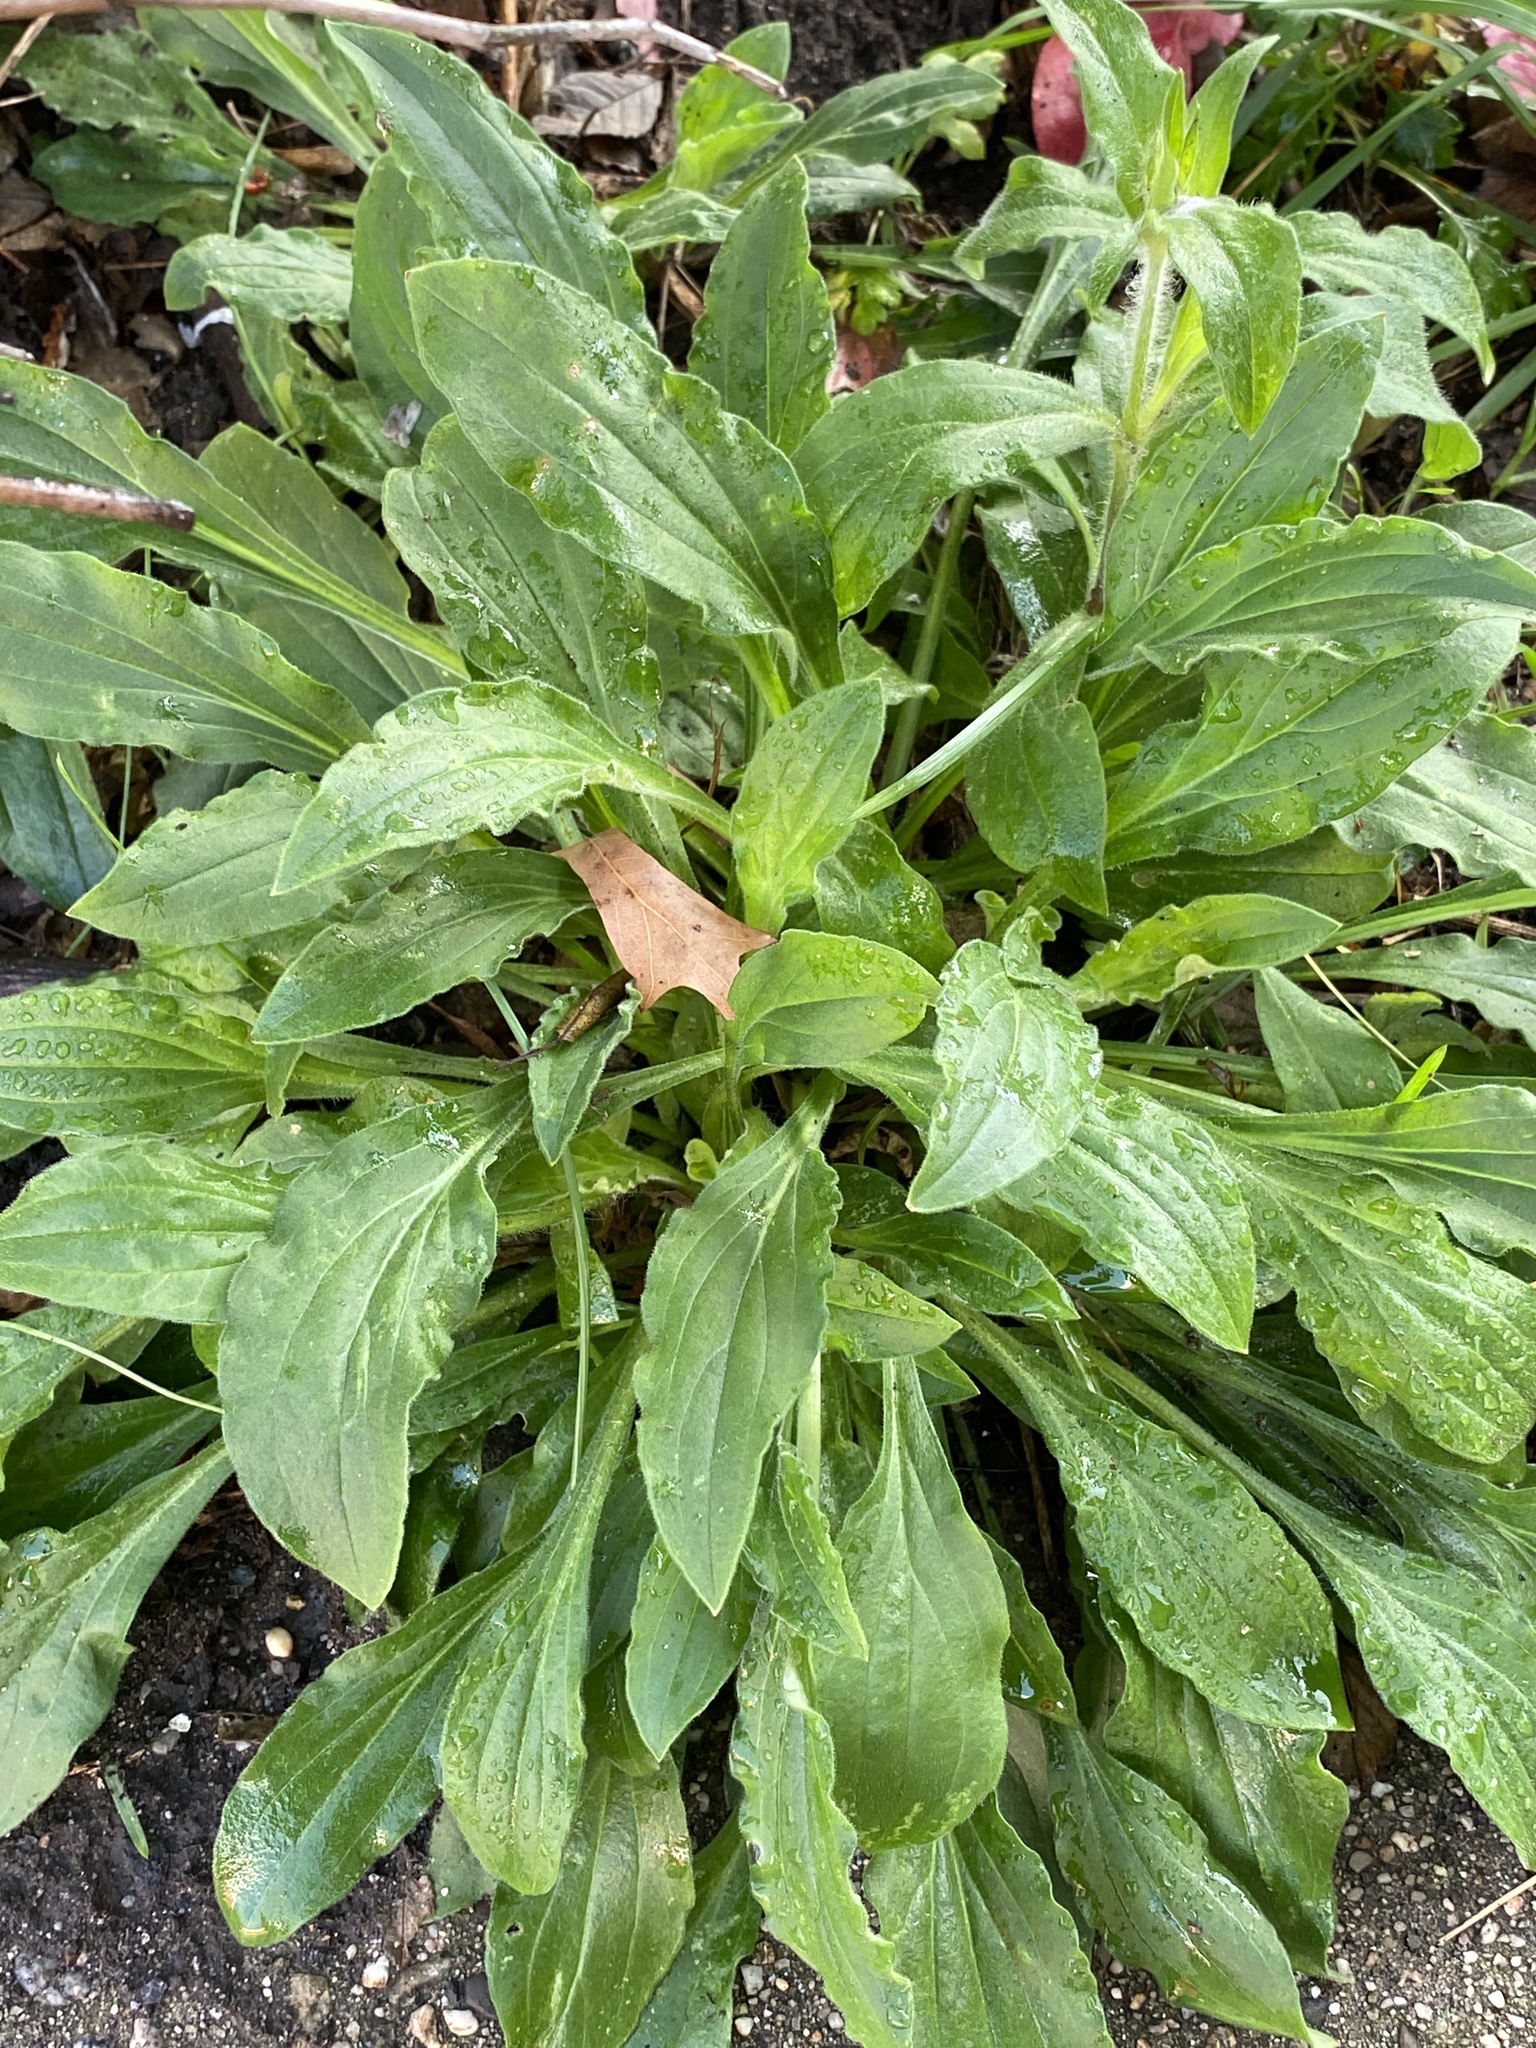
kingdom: Plantae
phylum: Tracheophyta
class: Magnoliopsida
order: Caryophyllales
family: Caryophyllaceae
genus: Silene
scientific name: Silene latifolia
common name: White campion
